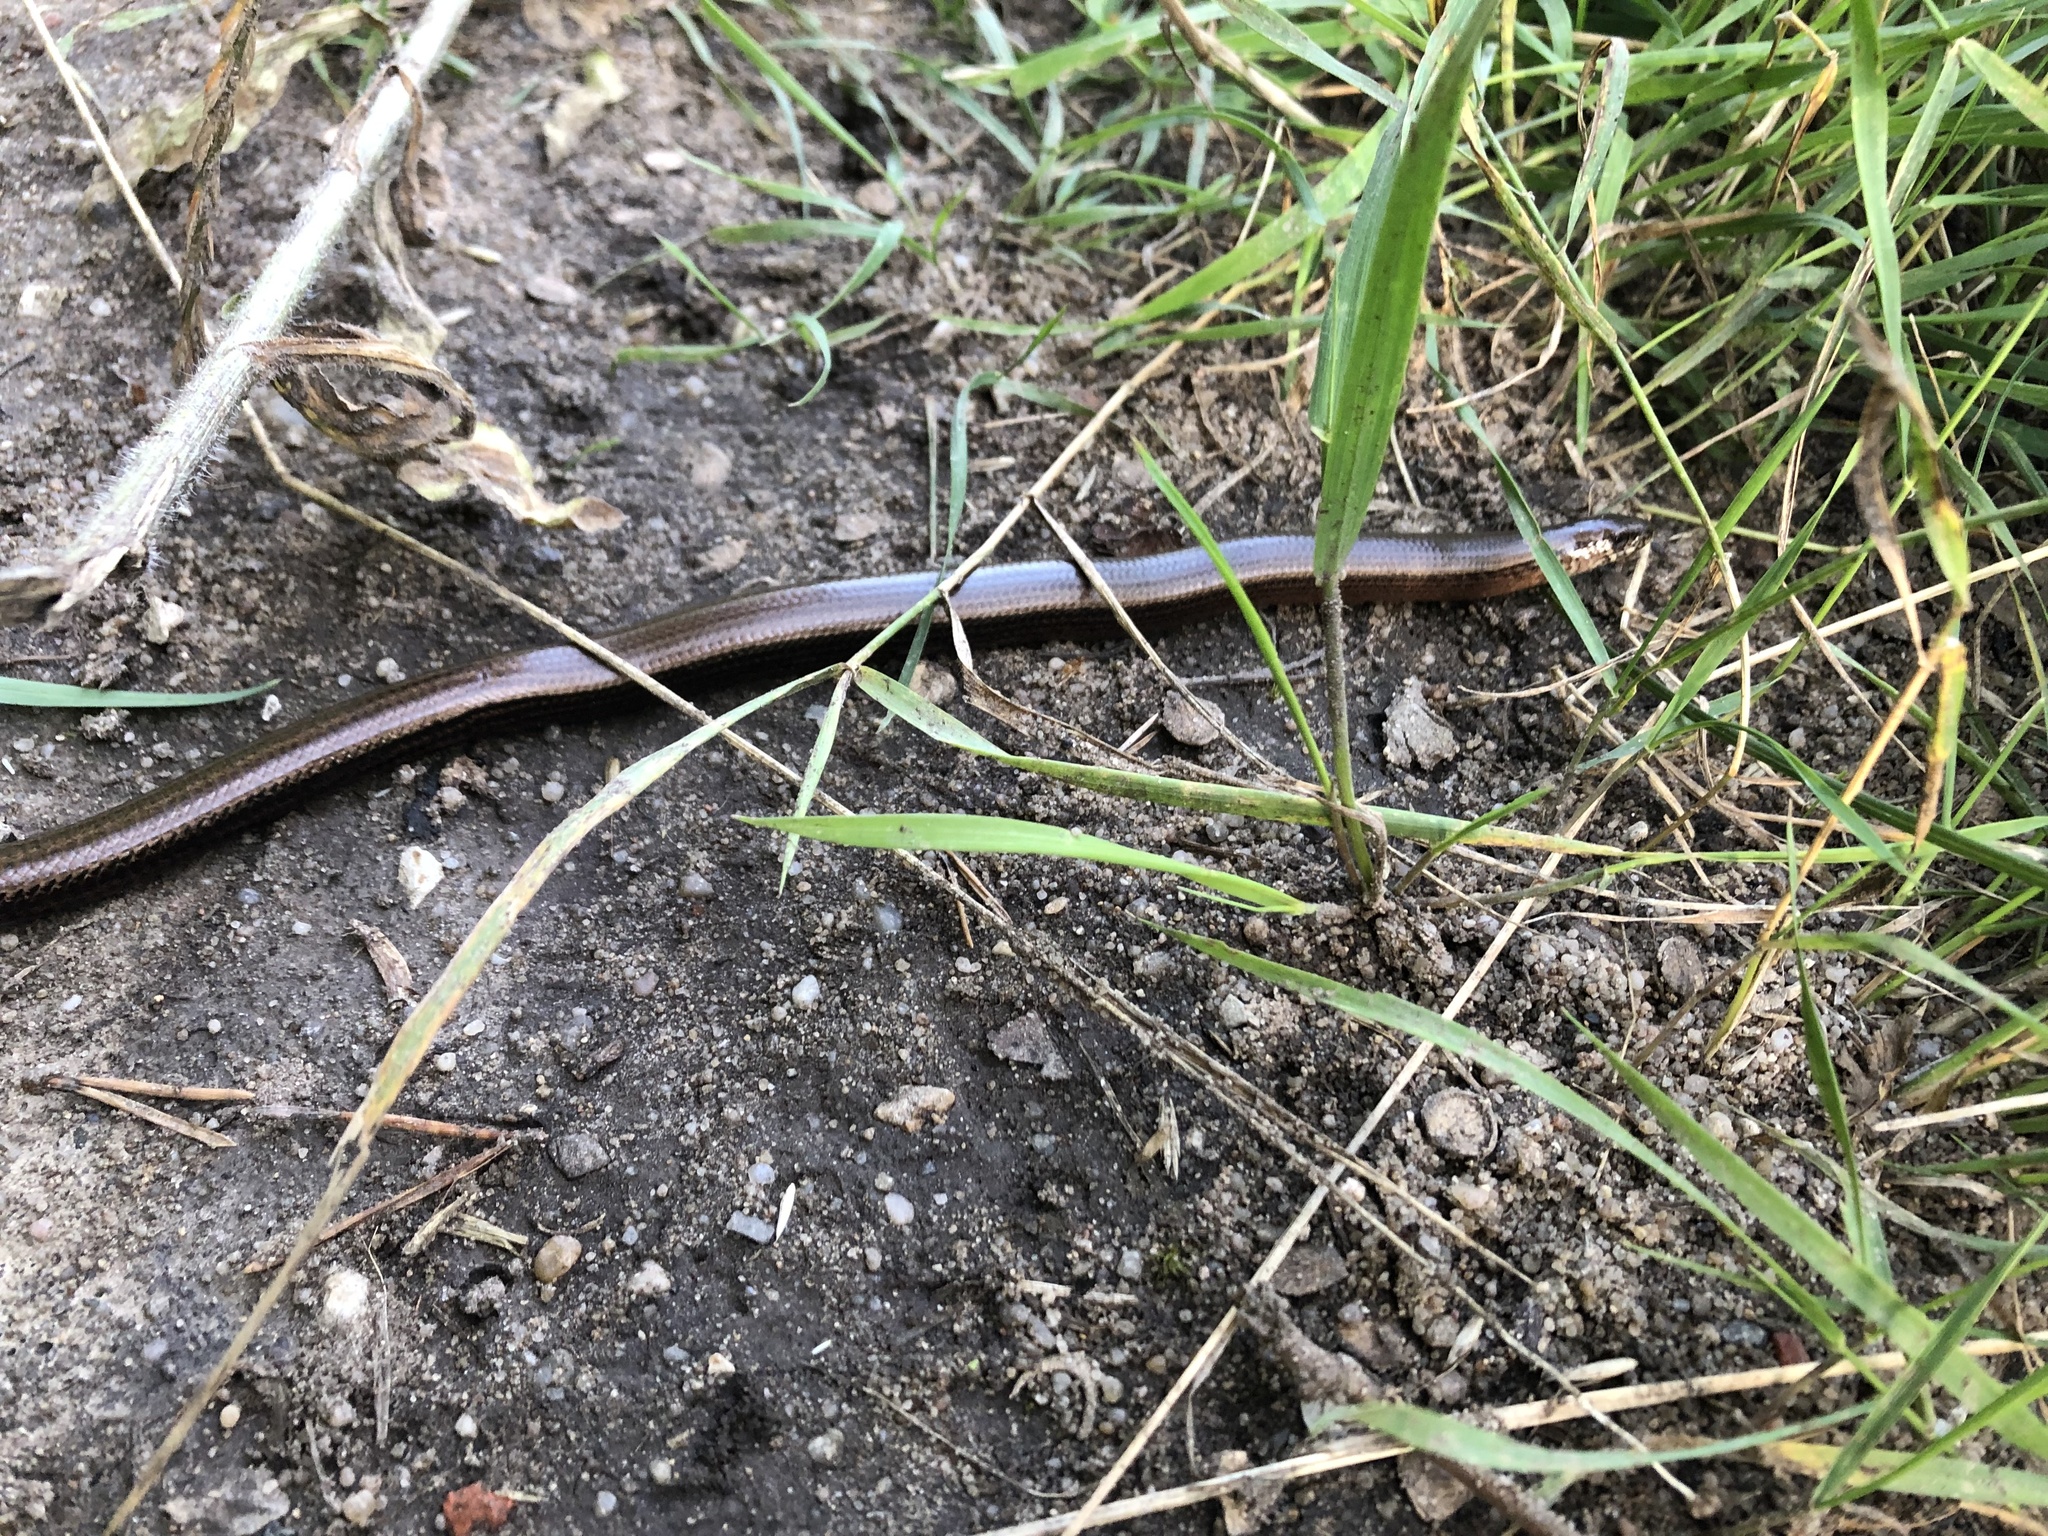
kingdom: Animalia
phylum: Chordata
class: Squamata
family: Anguidae
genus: Anguis
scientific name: Anguis fragilis
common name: Slow worm
